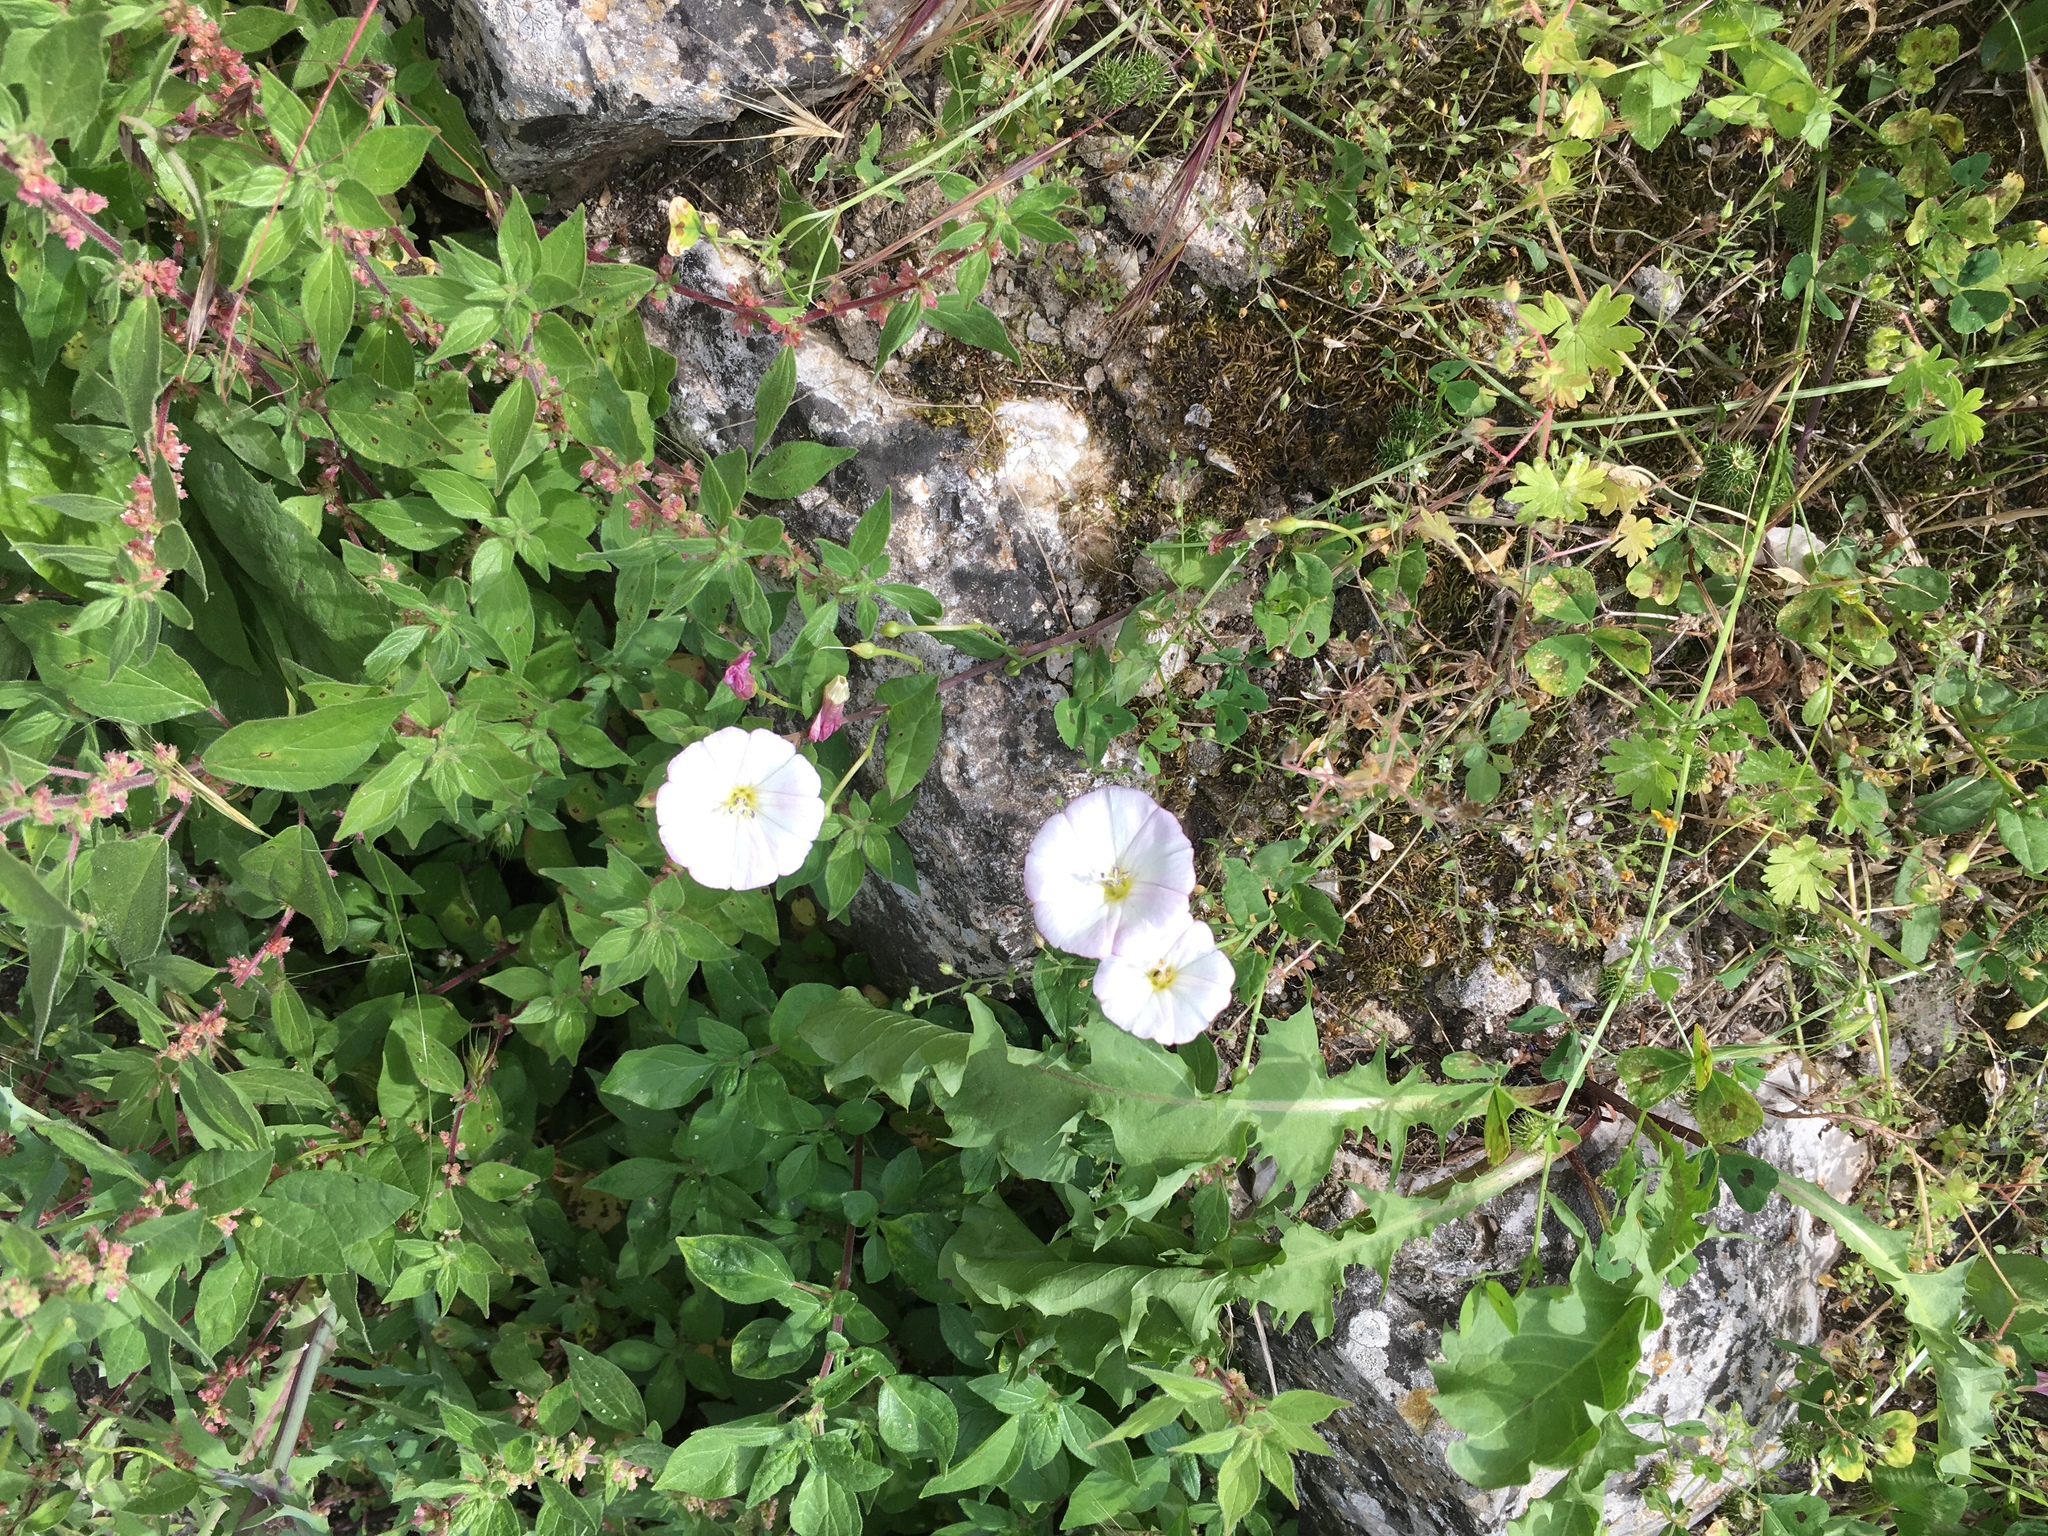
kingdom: Plantae
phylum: Tracheophyta
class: Magnoliopsida
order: Solanales
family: Convolvulaceae
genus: Convolvulus
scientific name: Convolvulus arvensis
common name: Field bindweed
